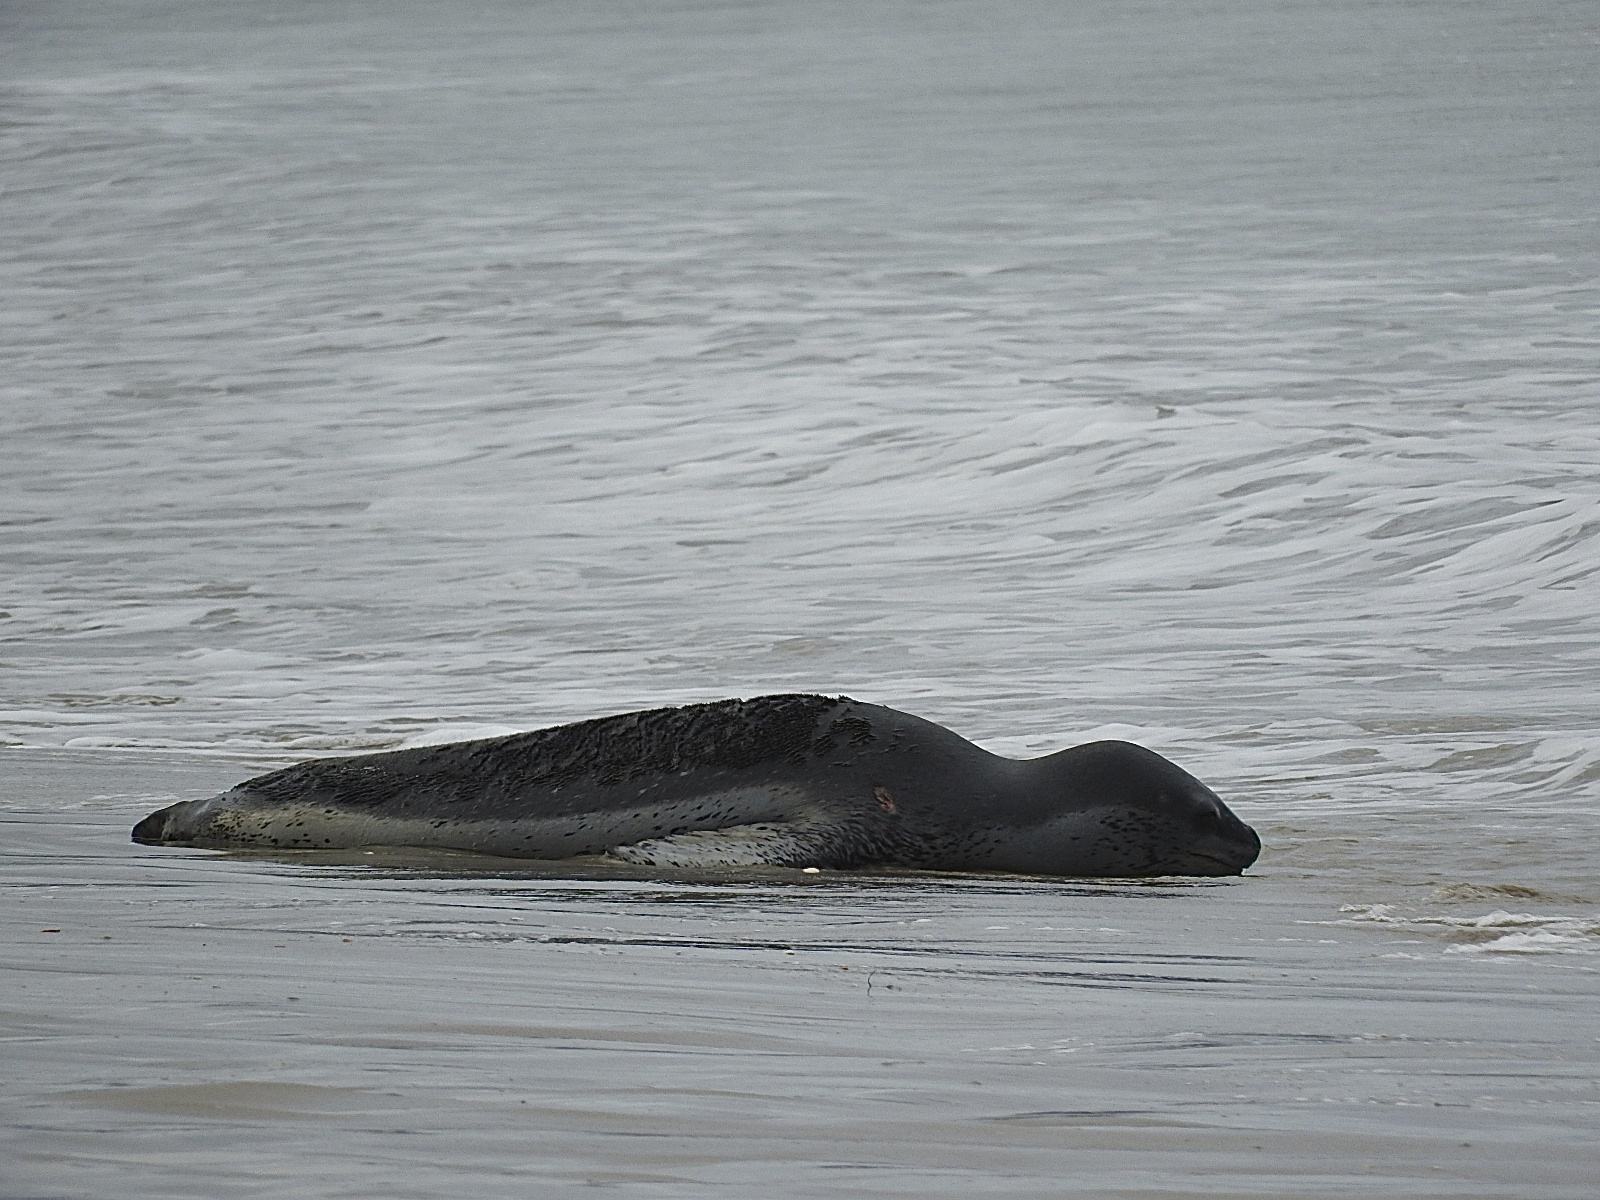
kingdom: Animalia
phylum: Chordata
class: Mammalia
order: Carnivora
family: Phocidae
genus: Hydrurga
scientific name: Hydrurga leptonyx
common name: Leopard seal
